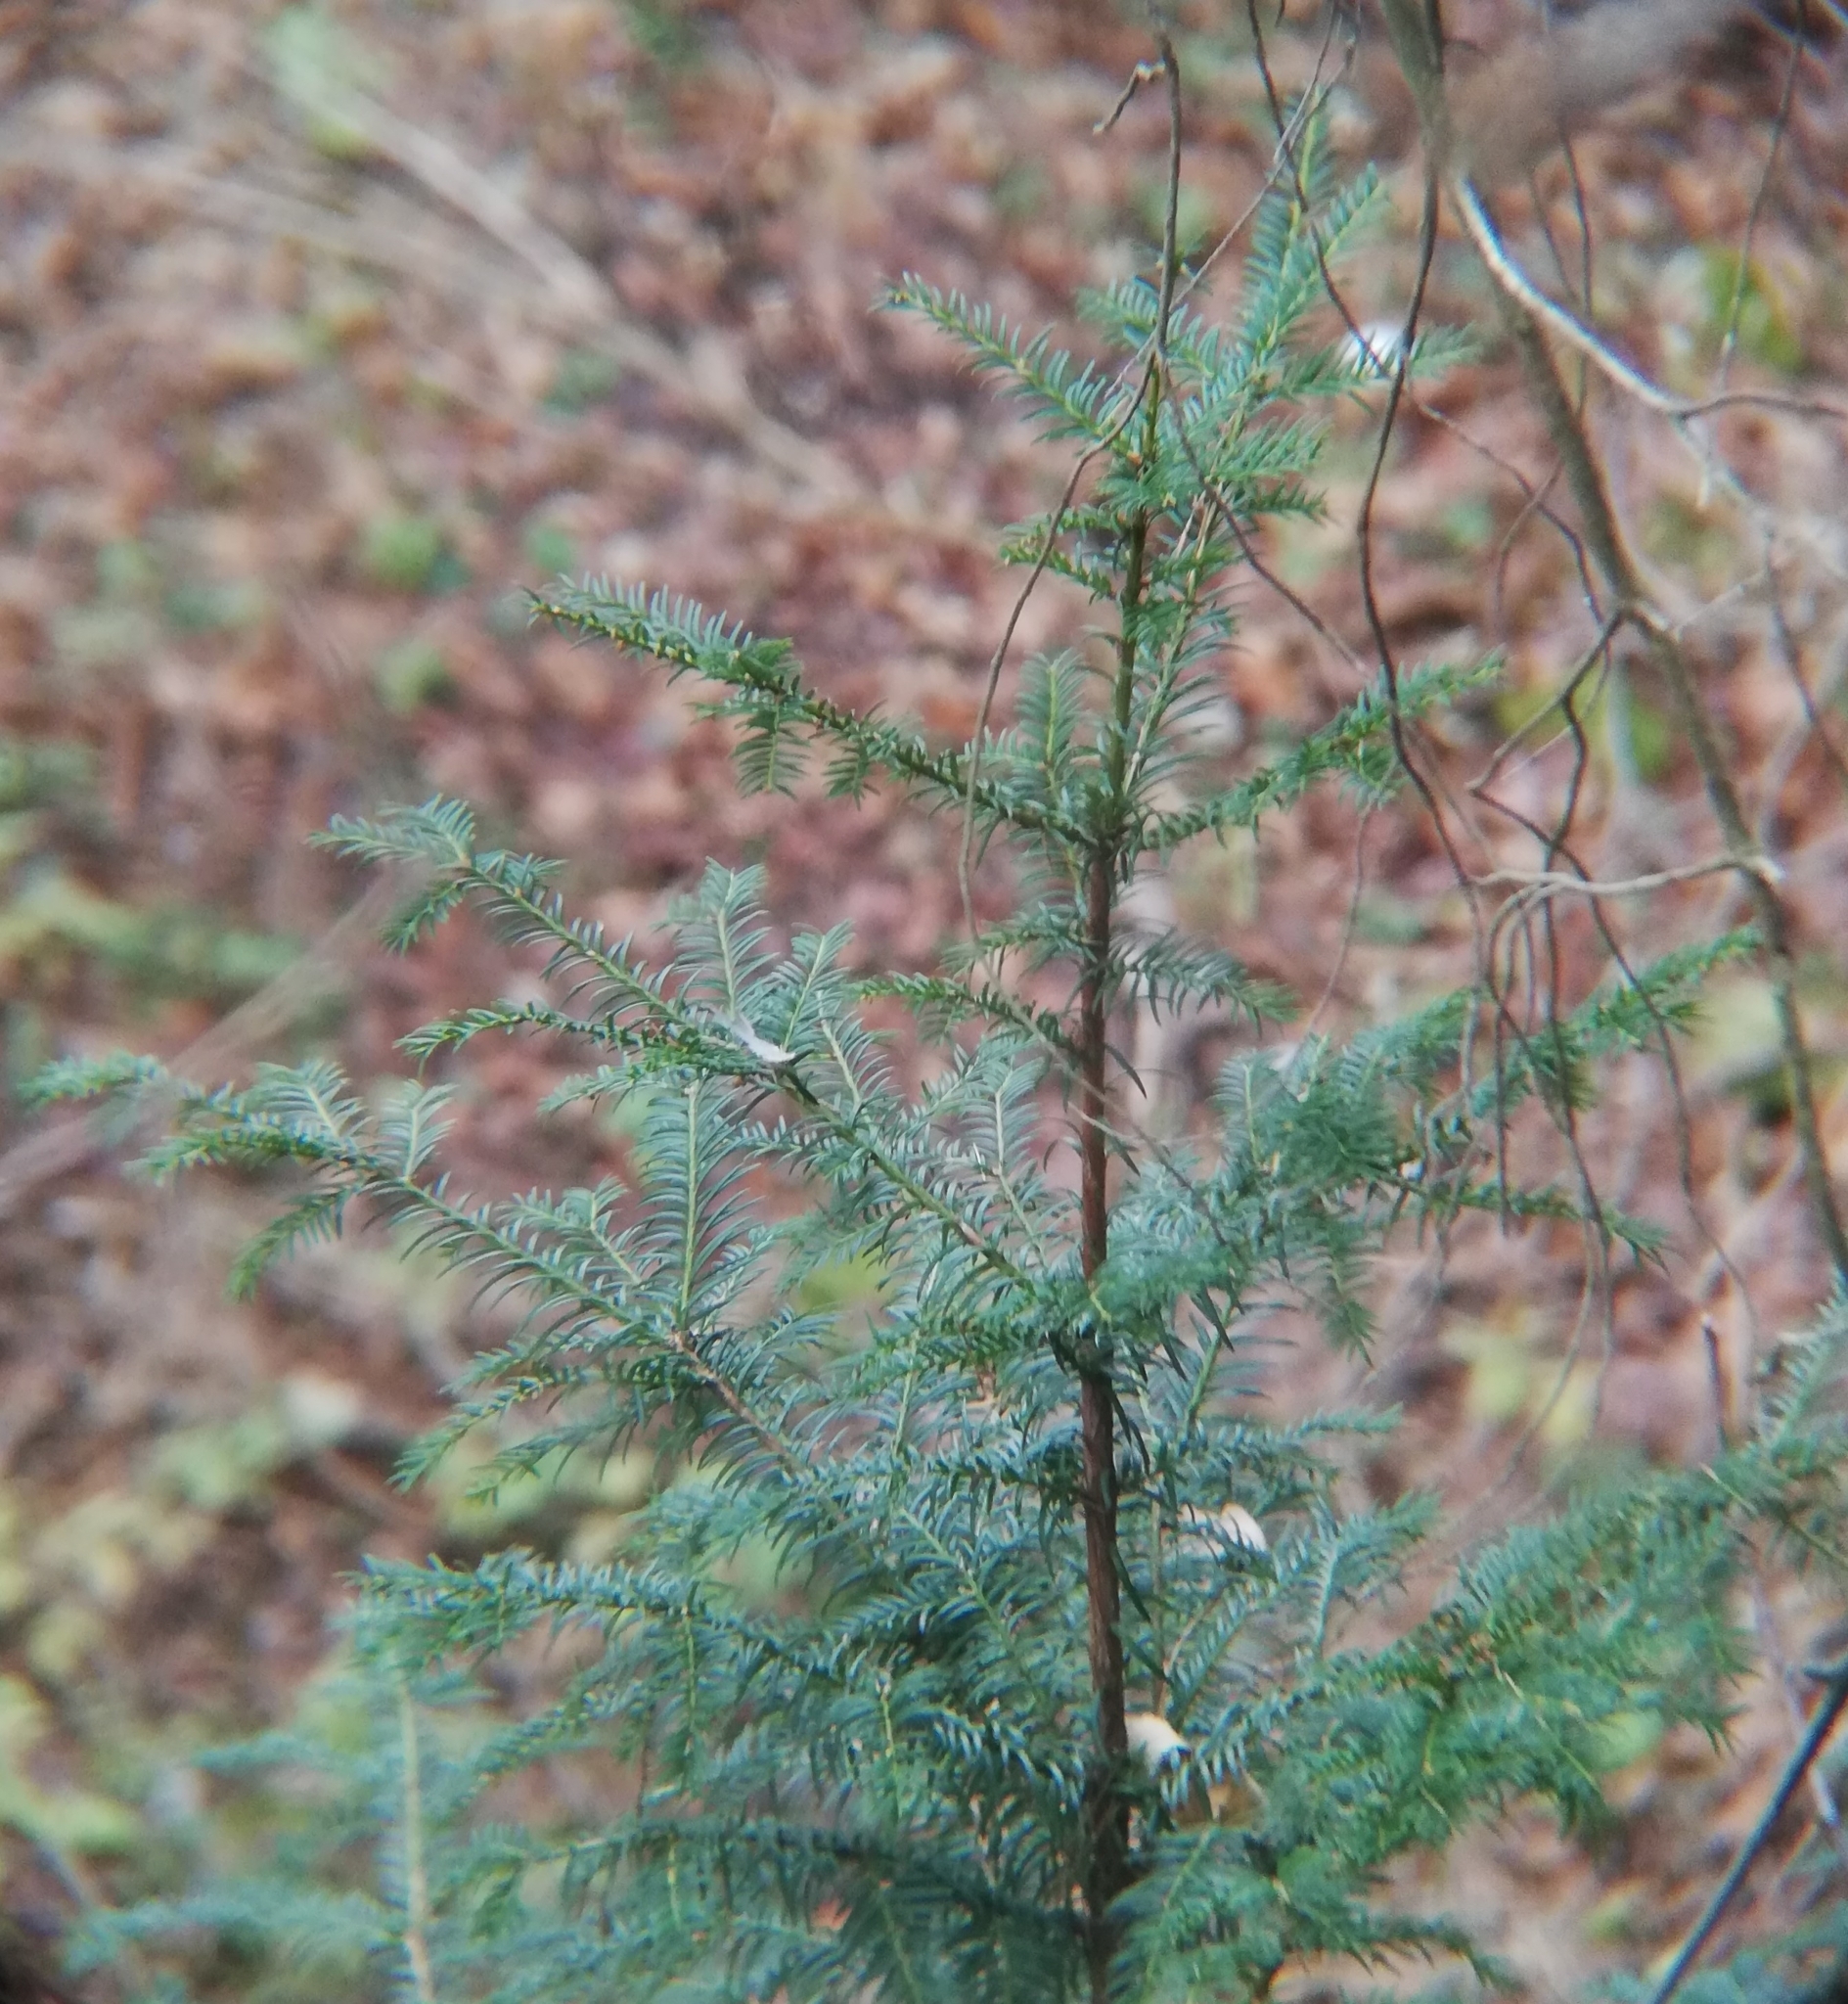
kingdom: Plantae
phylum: Tracheophyta
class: Pinopsida
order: Pinales
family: Taxaceae
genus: Taxus
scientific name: Taxus baccata
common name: Yew
